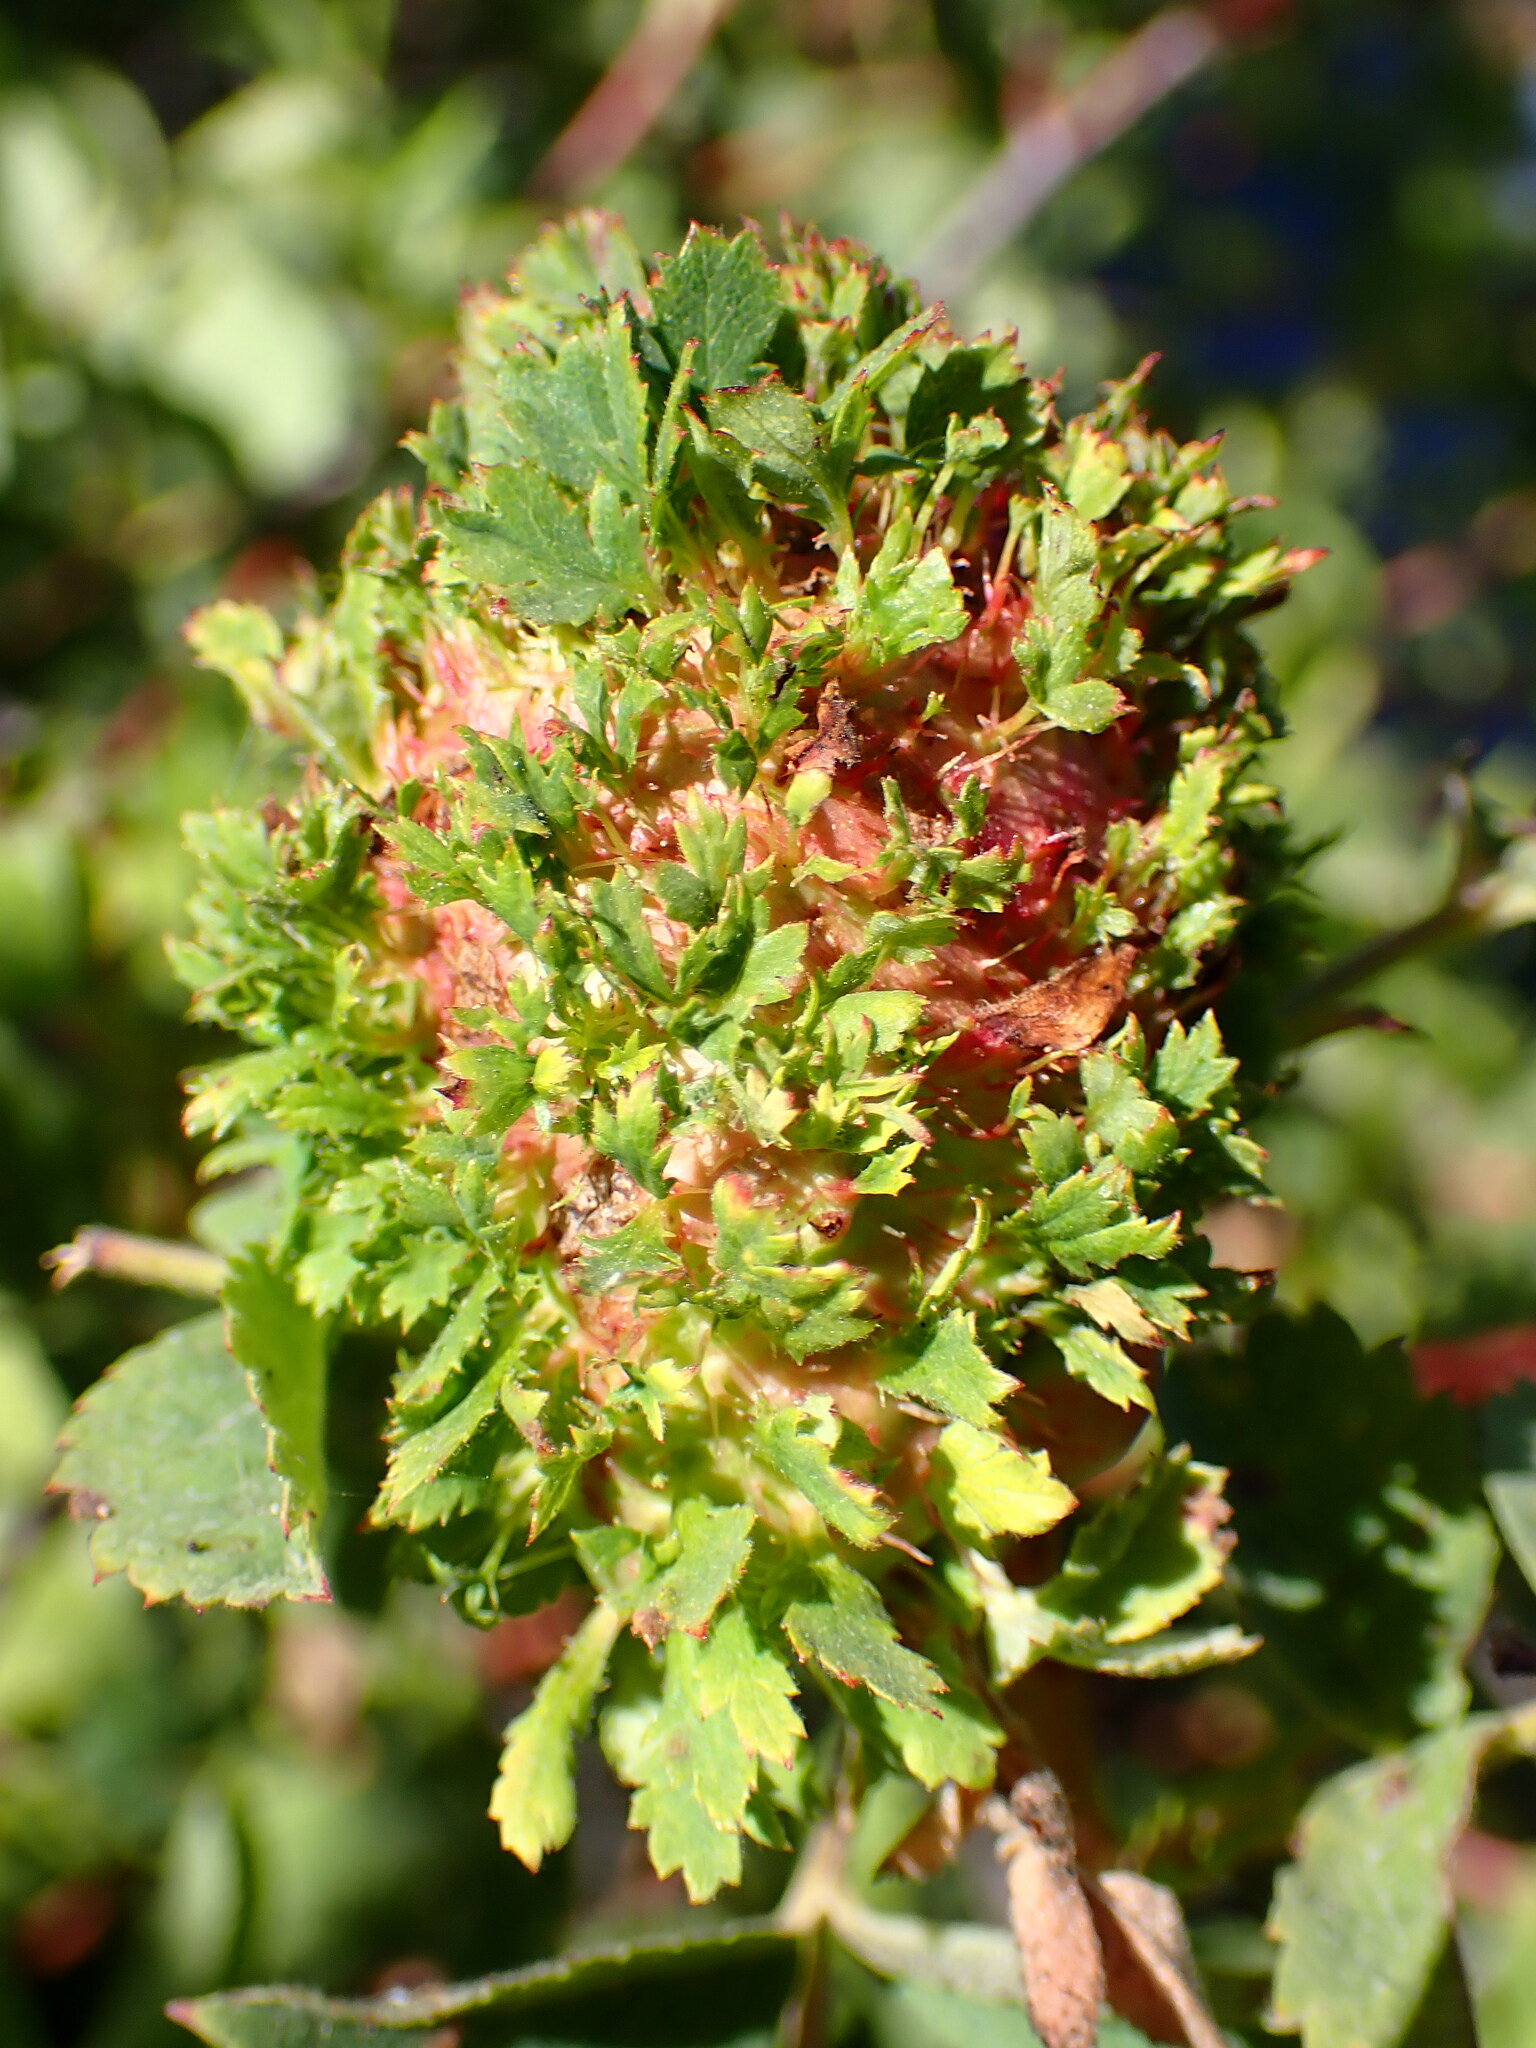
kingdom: Animalia
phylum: Arthropoda
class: Insecta
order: Hymenoptera
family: Cynipidae
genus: Diplolepis
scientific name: Diplolepis californica
